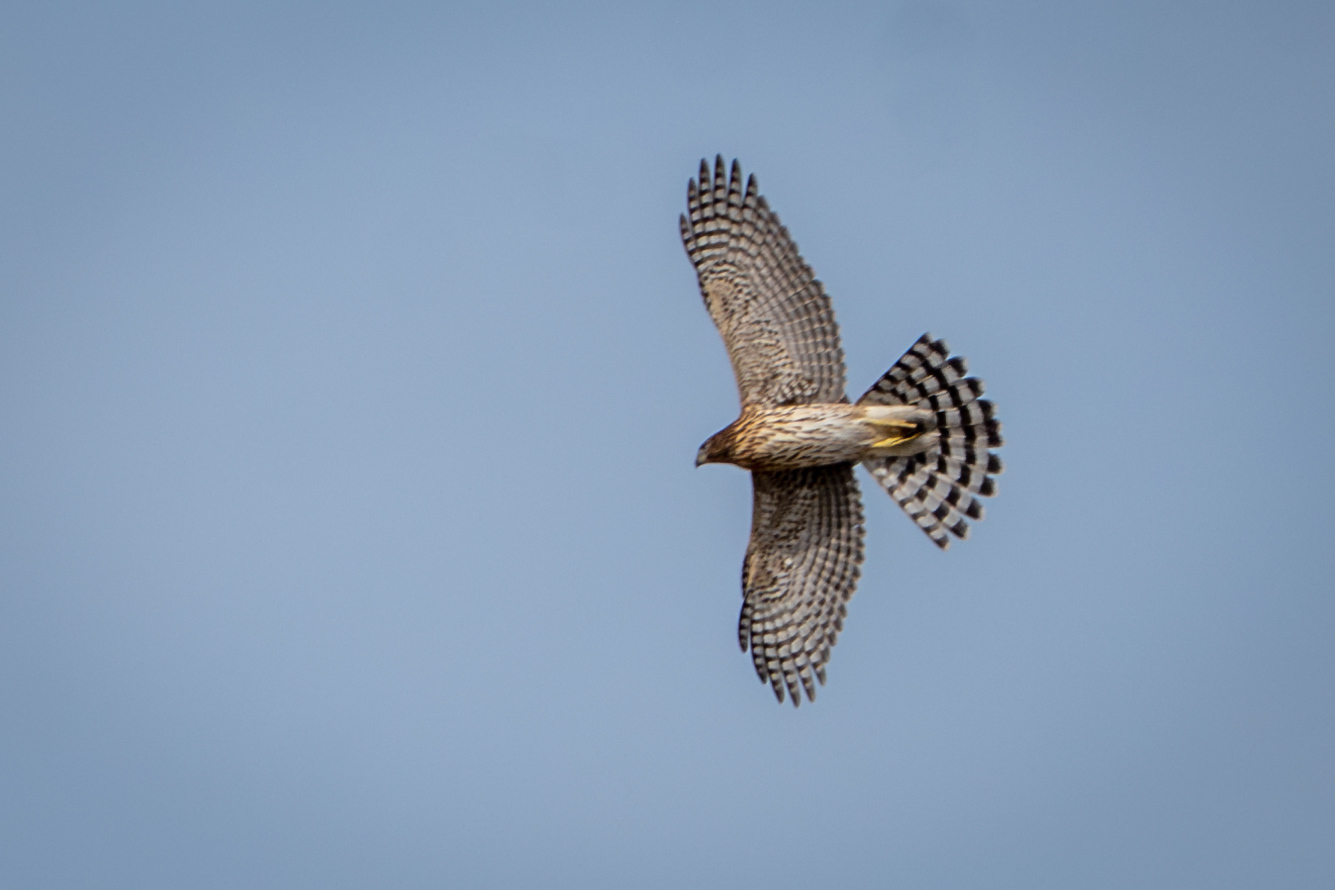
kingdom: Animalia
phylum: Chordata
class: Aves
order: Accipitriformes
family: Accipitridae
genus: Accipiter
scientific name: Accipiter cooperii
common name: Cooper's hawk
